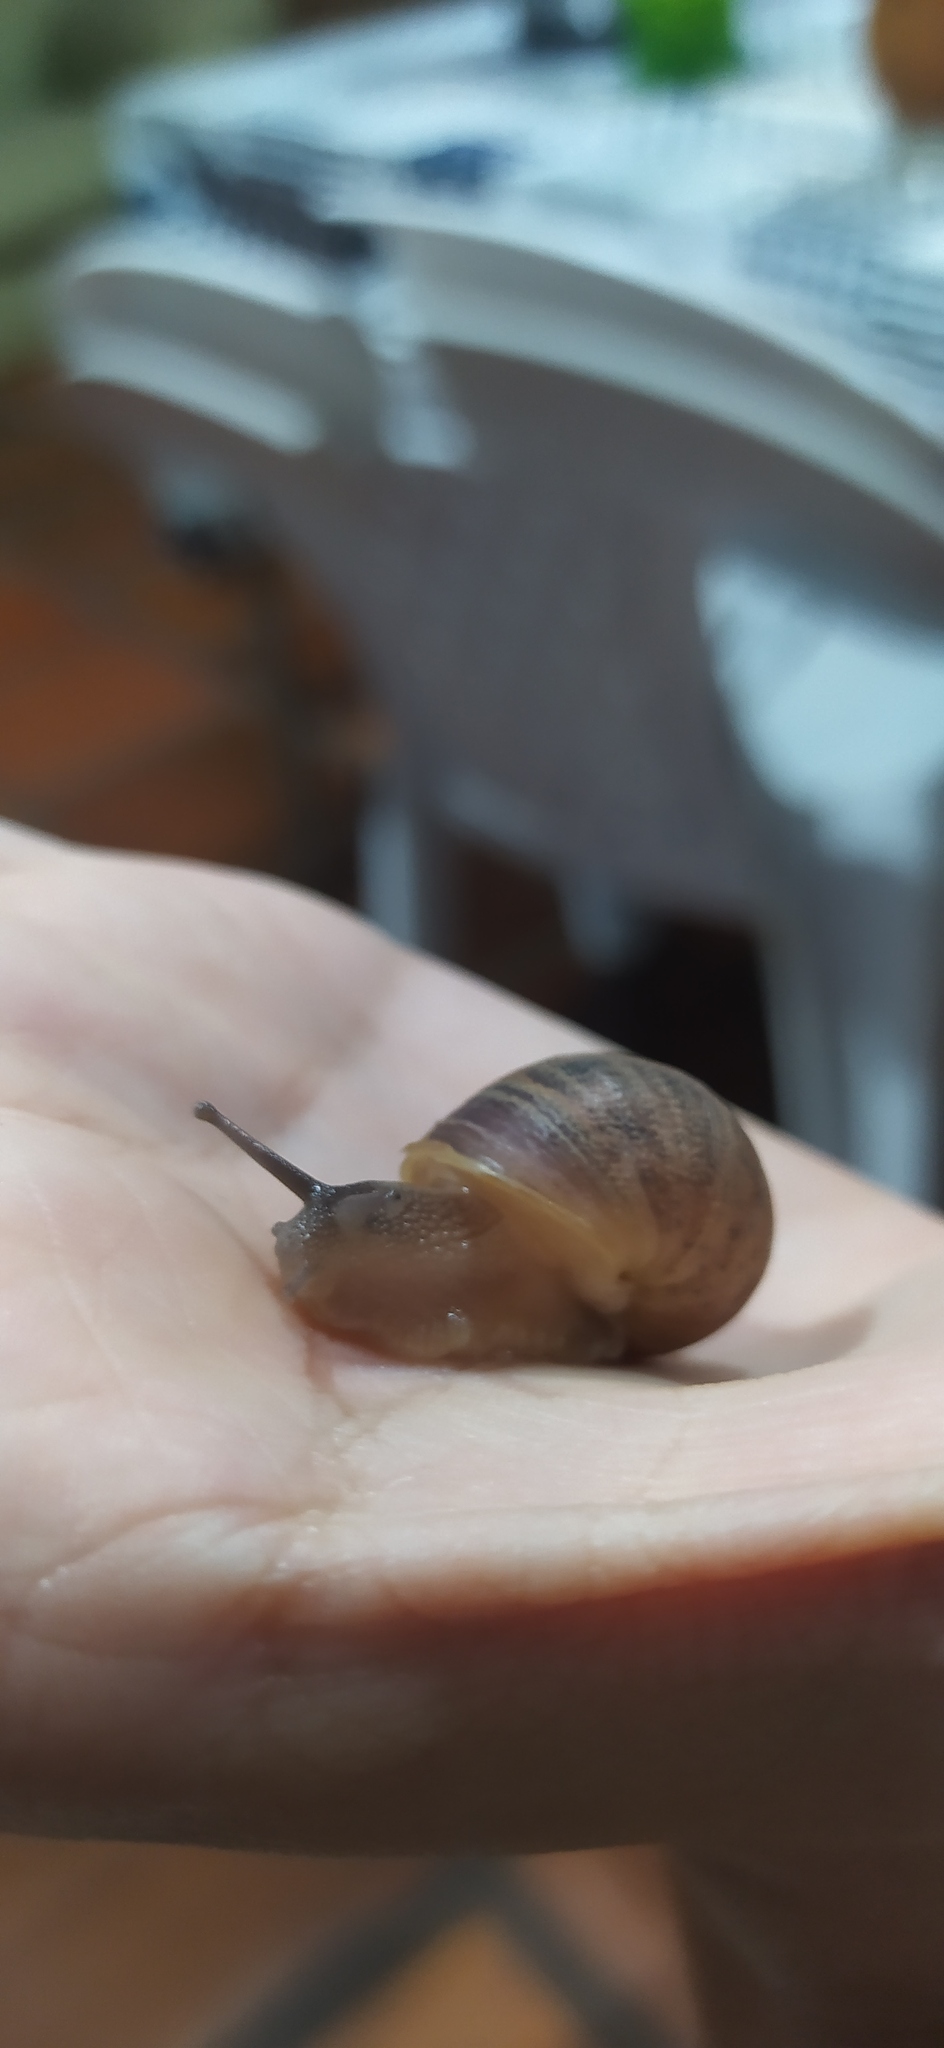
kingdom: Animalia
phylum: Mollusca
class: Gastropoda
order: Stylommatophora
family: Helicidae
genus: Cornu
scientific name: Cornu aspersum
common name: Brown garden snail
